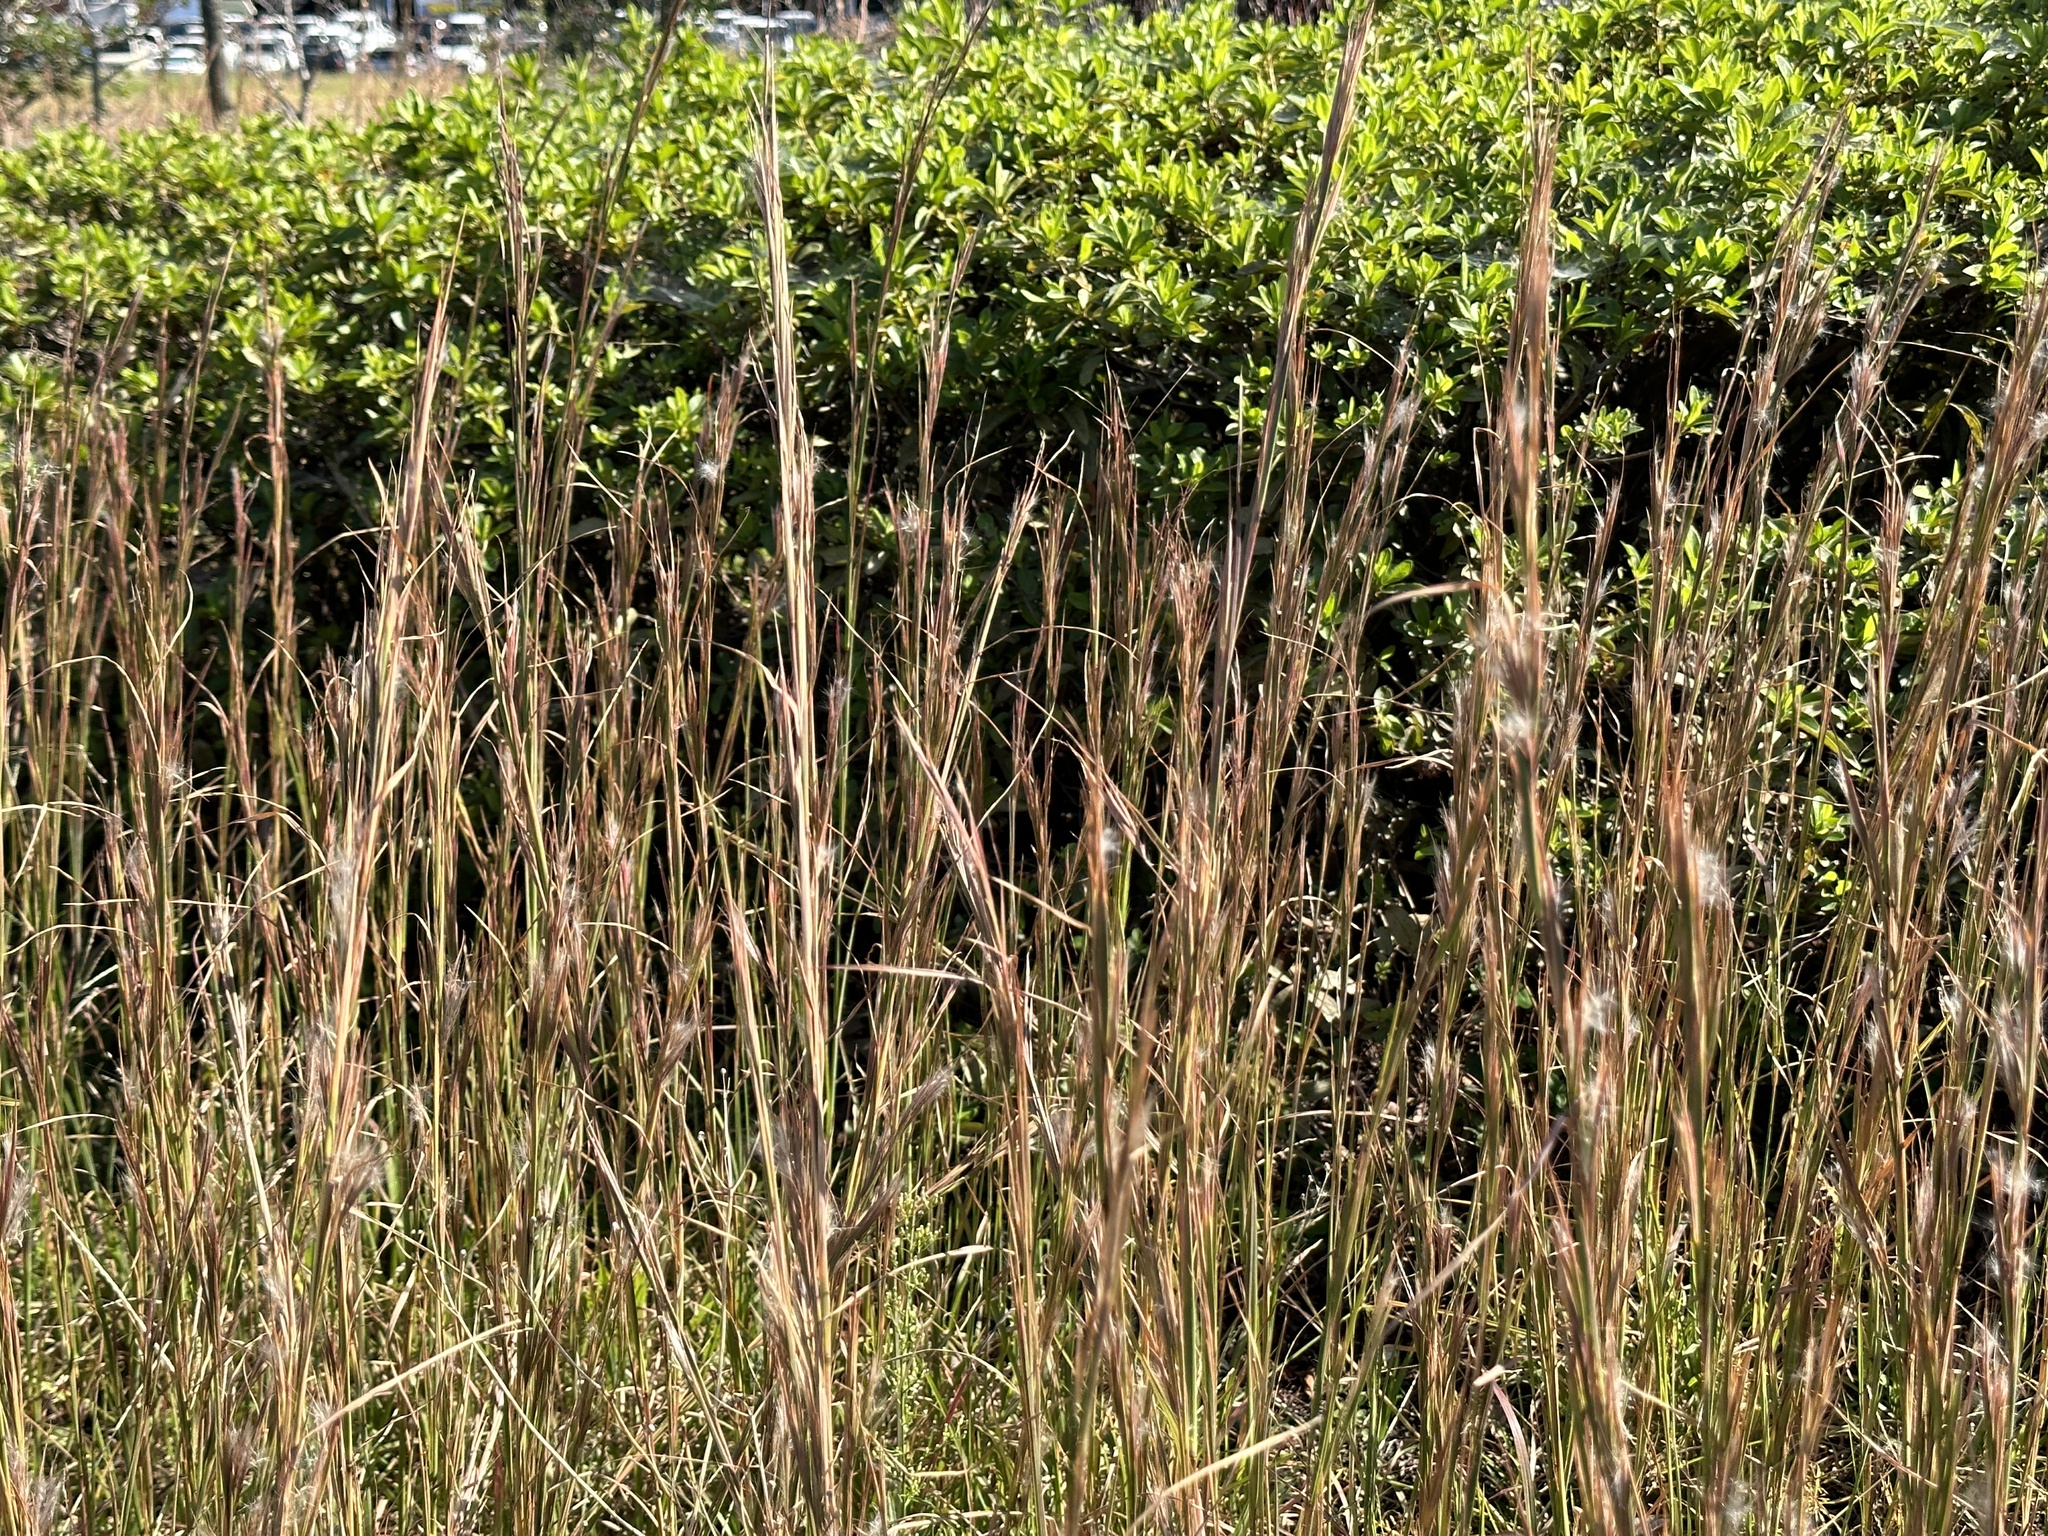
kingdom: Plantae
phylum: Tracheophyta
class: Liliopsida
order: Poales
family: Poaceae
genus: Andropogon
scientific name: Andropogon virginicus
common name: Broomsedge bluestem
